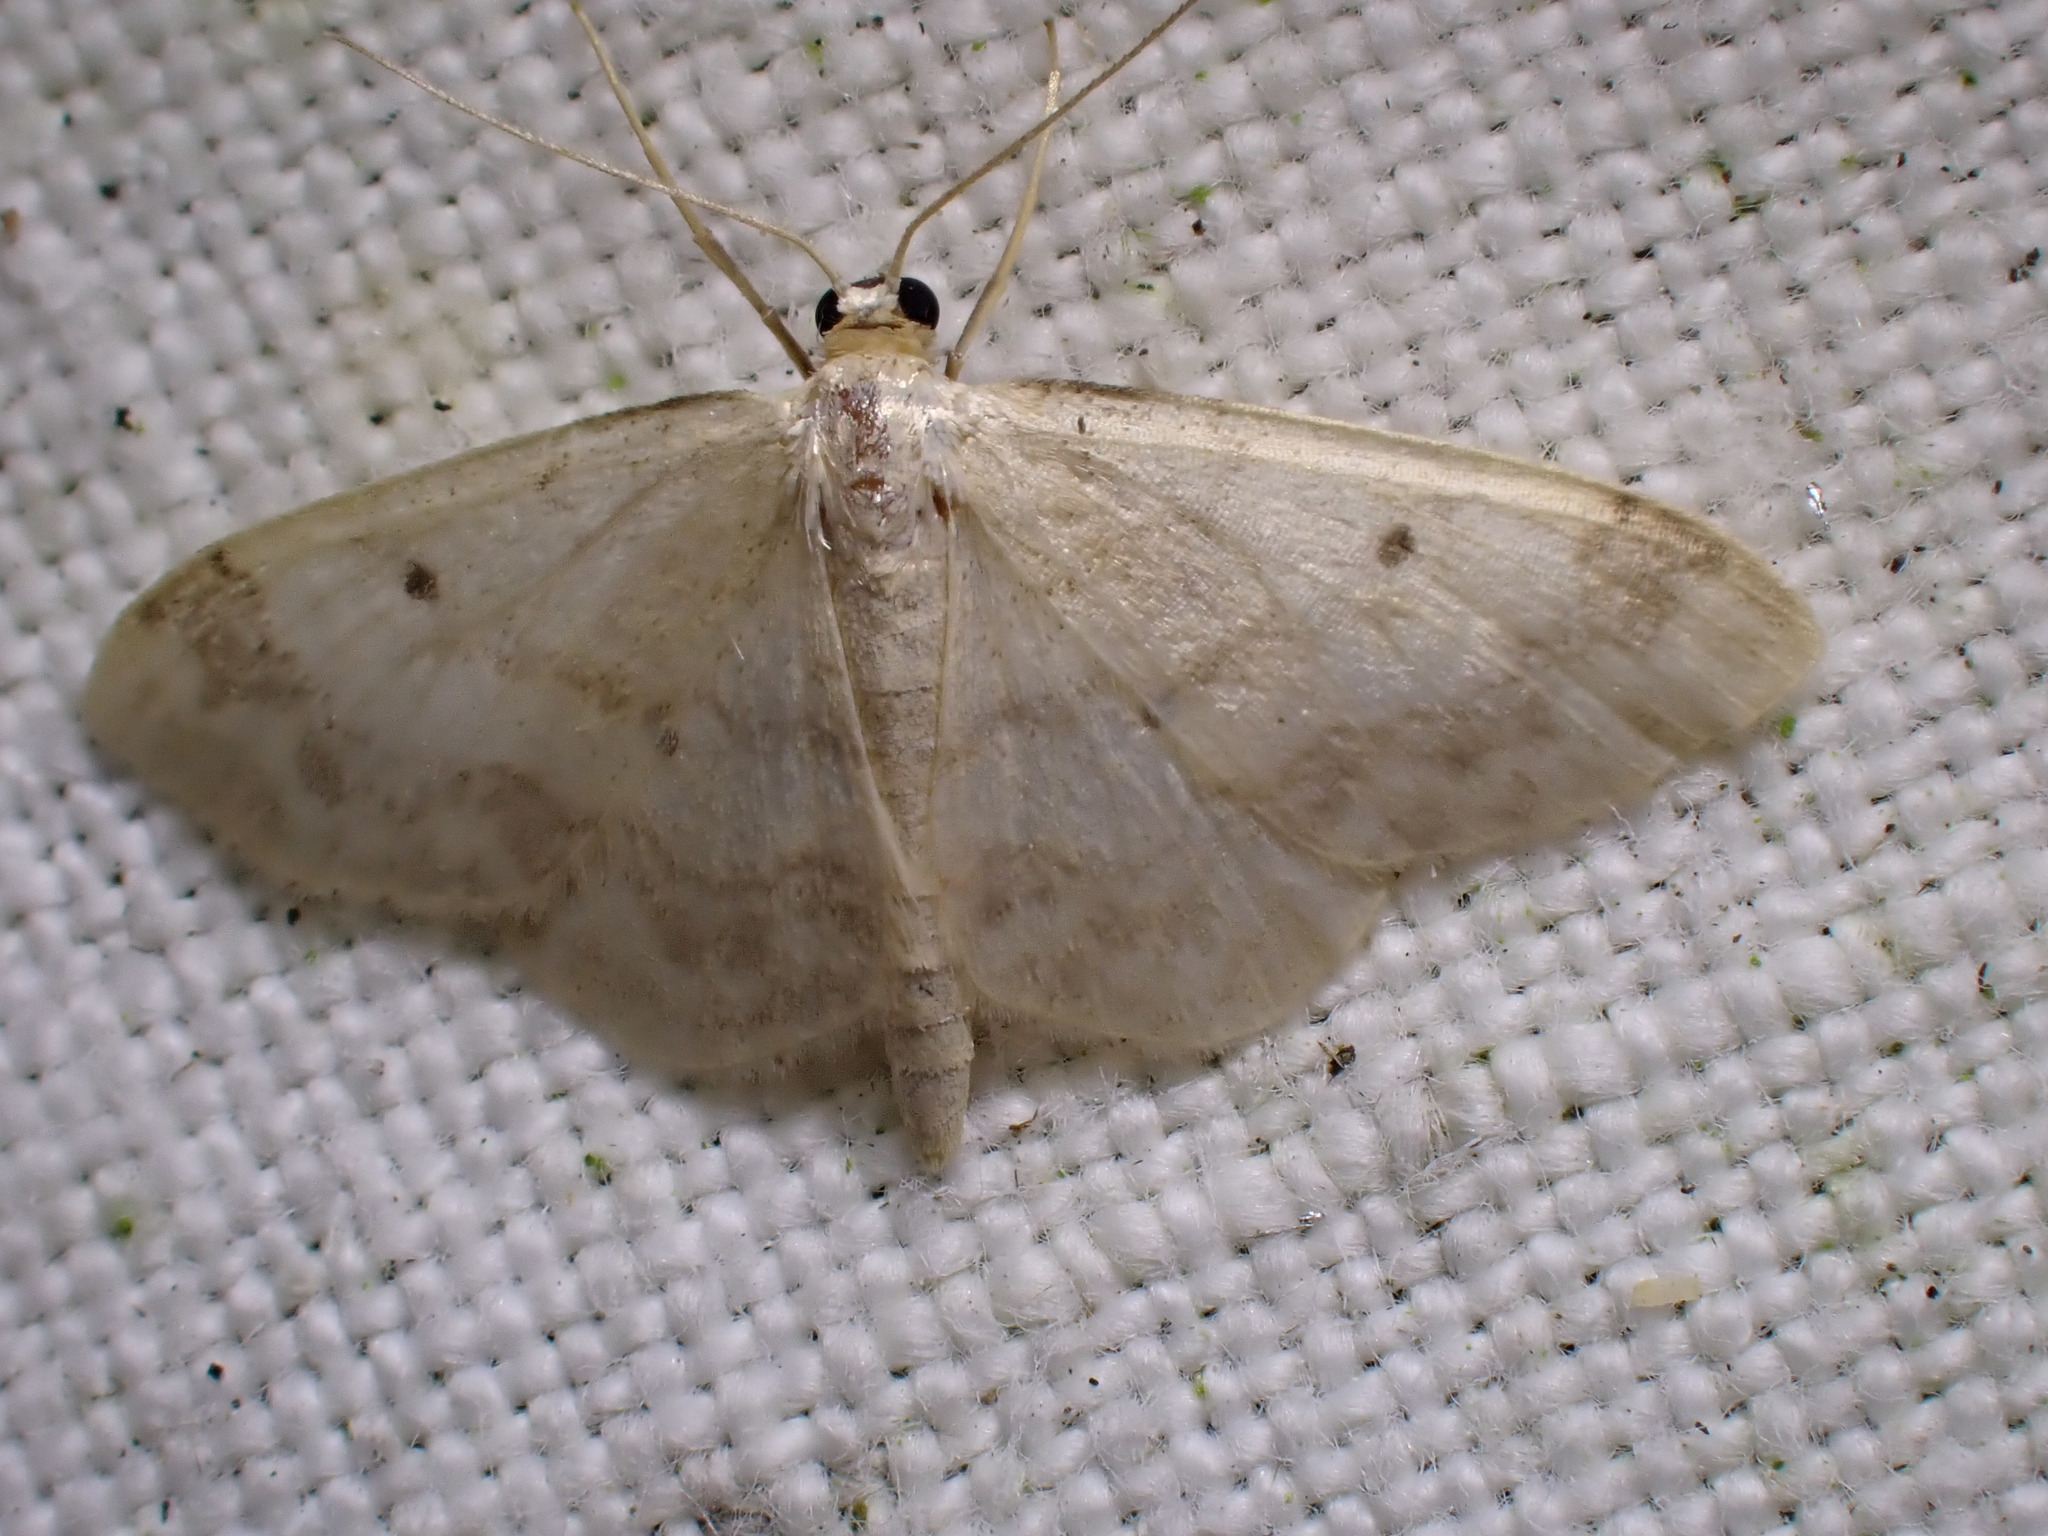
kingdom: Animalia
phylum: Arthropoda
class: Insecta
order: Lepidoptera
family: Geometridae
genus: Idaea
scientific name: Idaea biselata
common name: Small fan-footed wave
